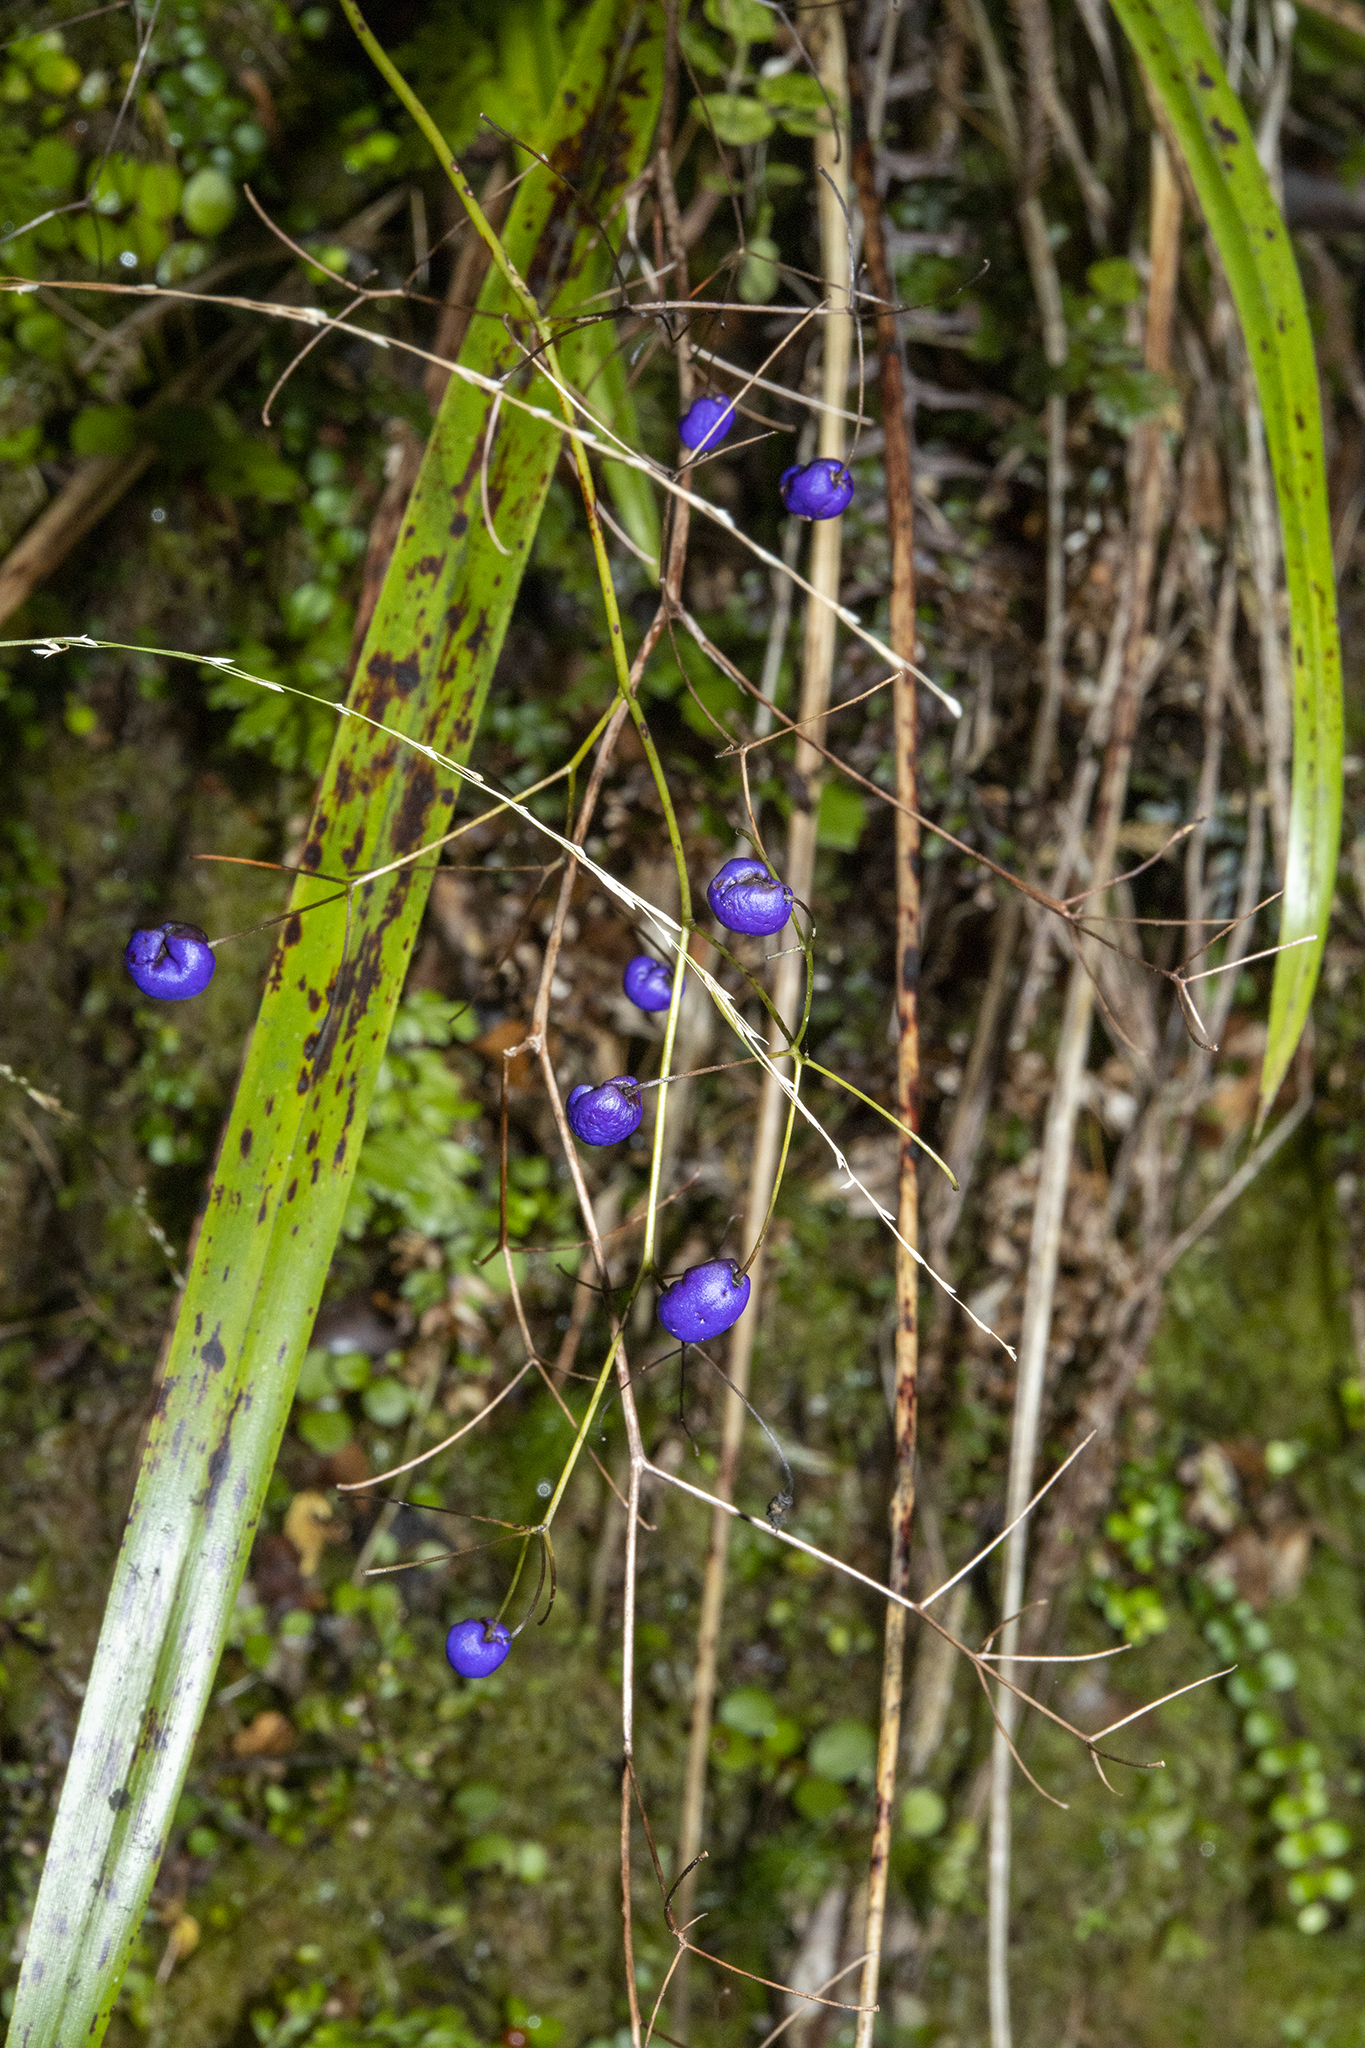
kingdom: Plantae
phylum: Tracheophyta
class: Liliopsida
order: Asparagales
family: Asphodelaceae
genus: Dianella
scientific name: Dianella nigra
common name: New zealand-blueberry
